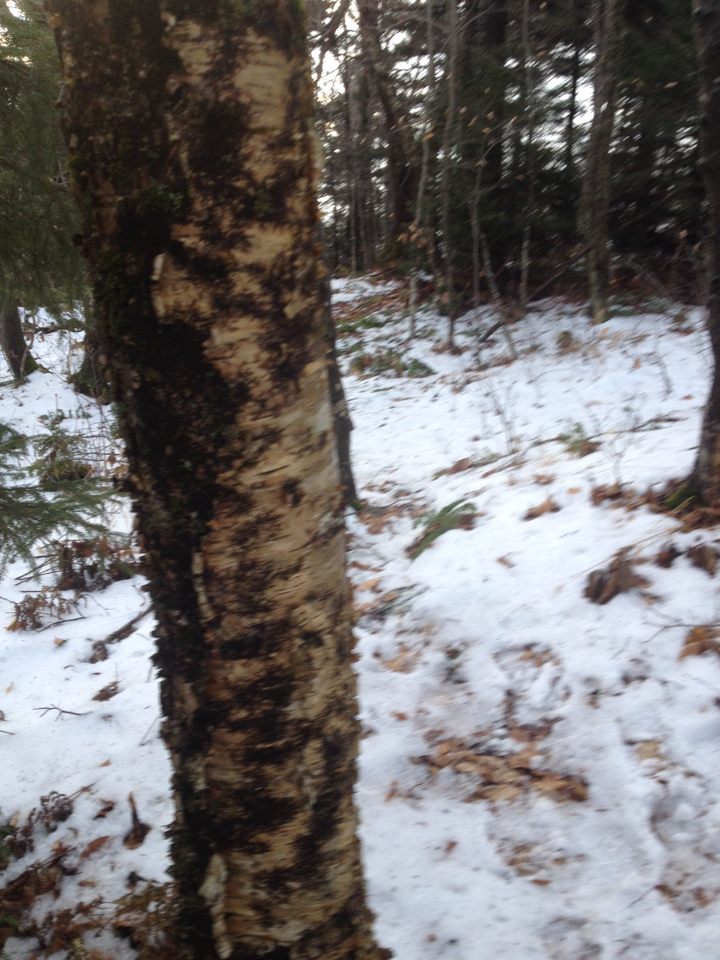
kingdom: Plantae
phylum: Tracheophyta
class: Magnoliopsida
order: Fagales
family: Betulaceae
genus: Betula
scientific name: Betula alleghaniensis
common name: Yellow birch
